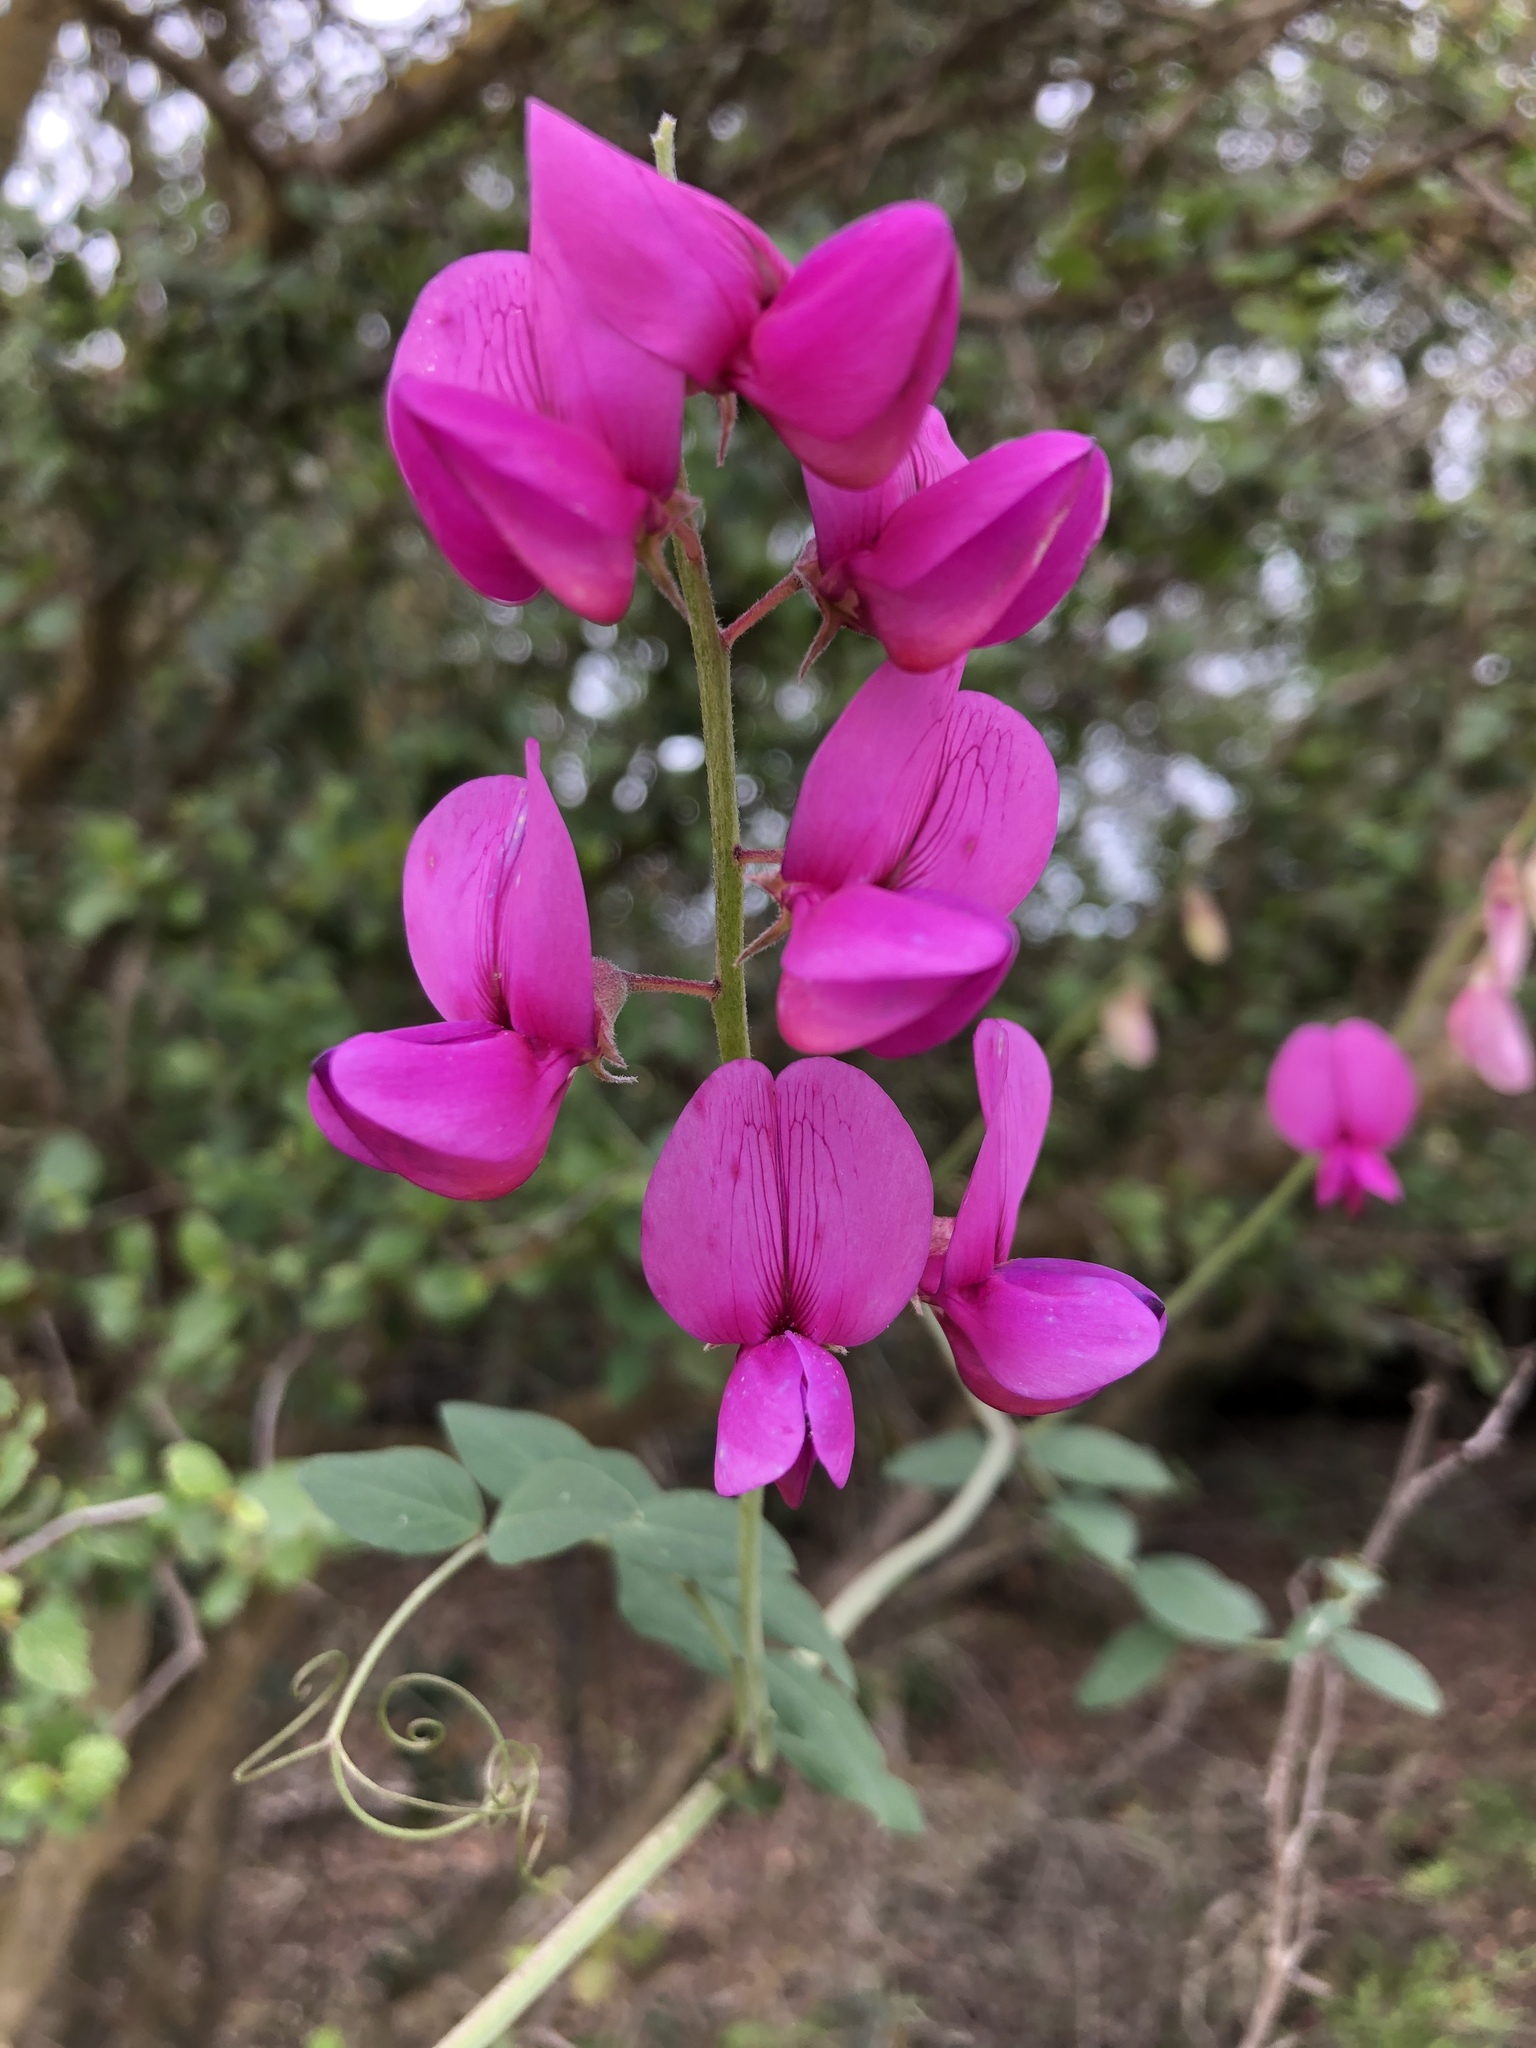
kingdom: Plantae
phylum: Tracheophyta
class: Magnoliopsida
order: Fabales
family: Fabaceae
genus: Lathyrus
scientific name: Lathyrus vestitus
